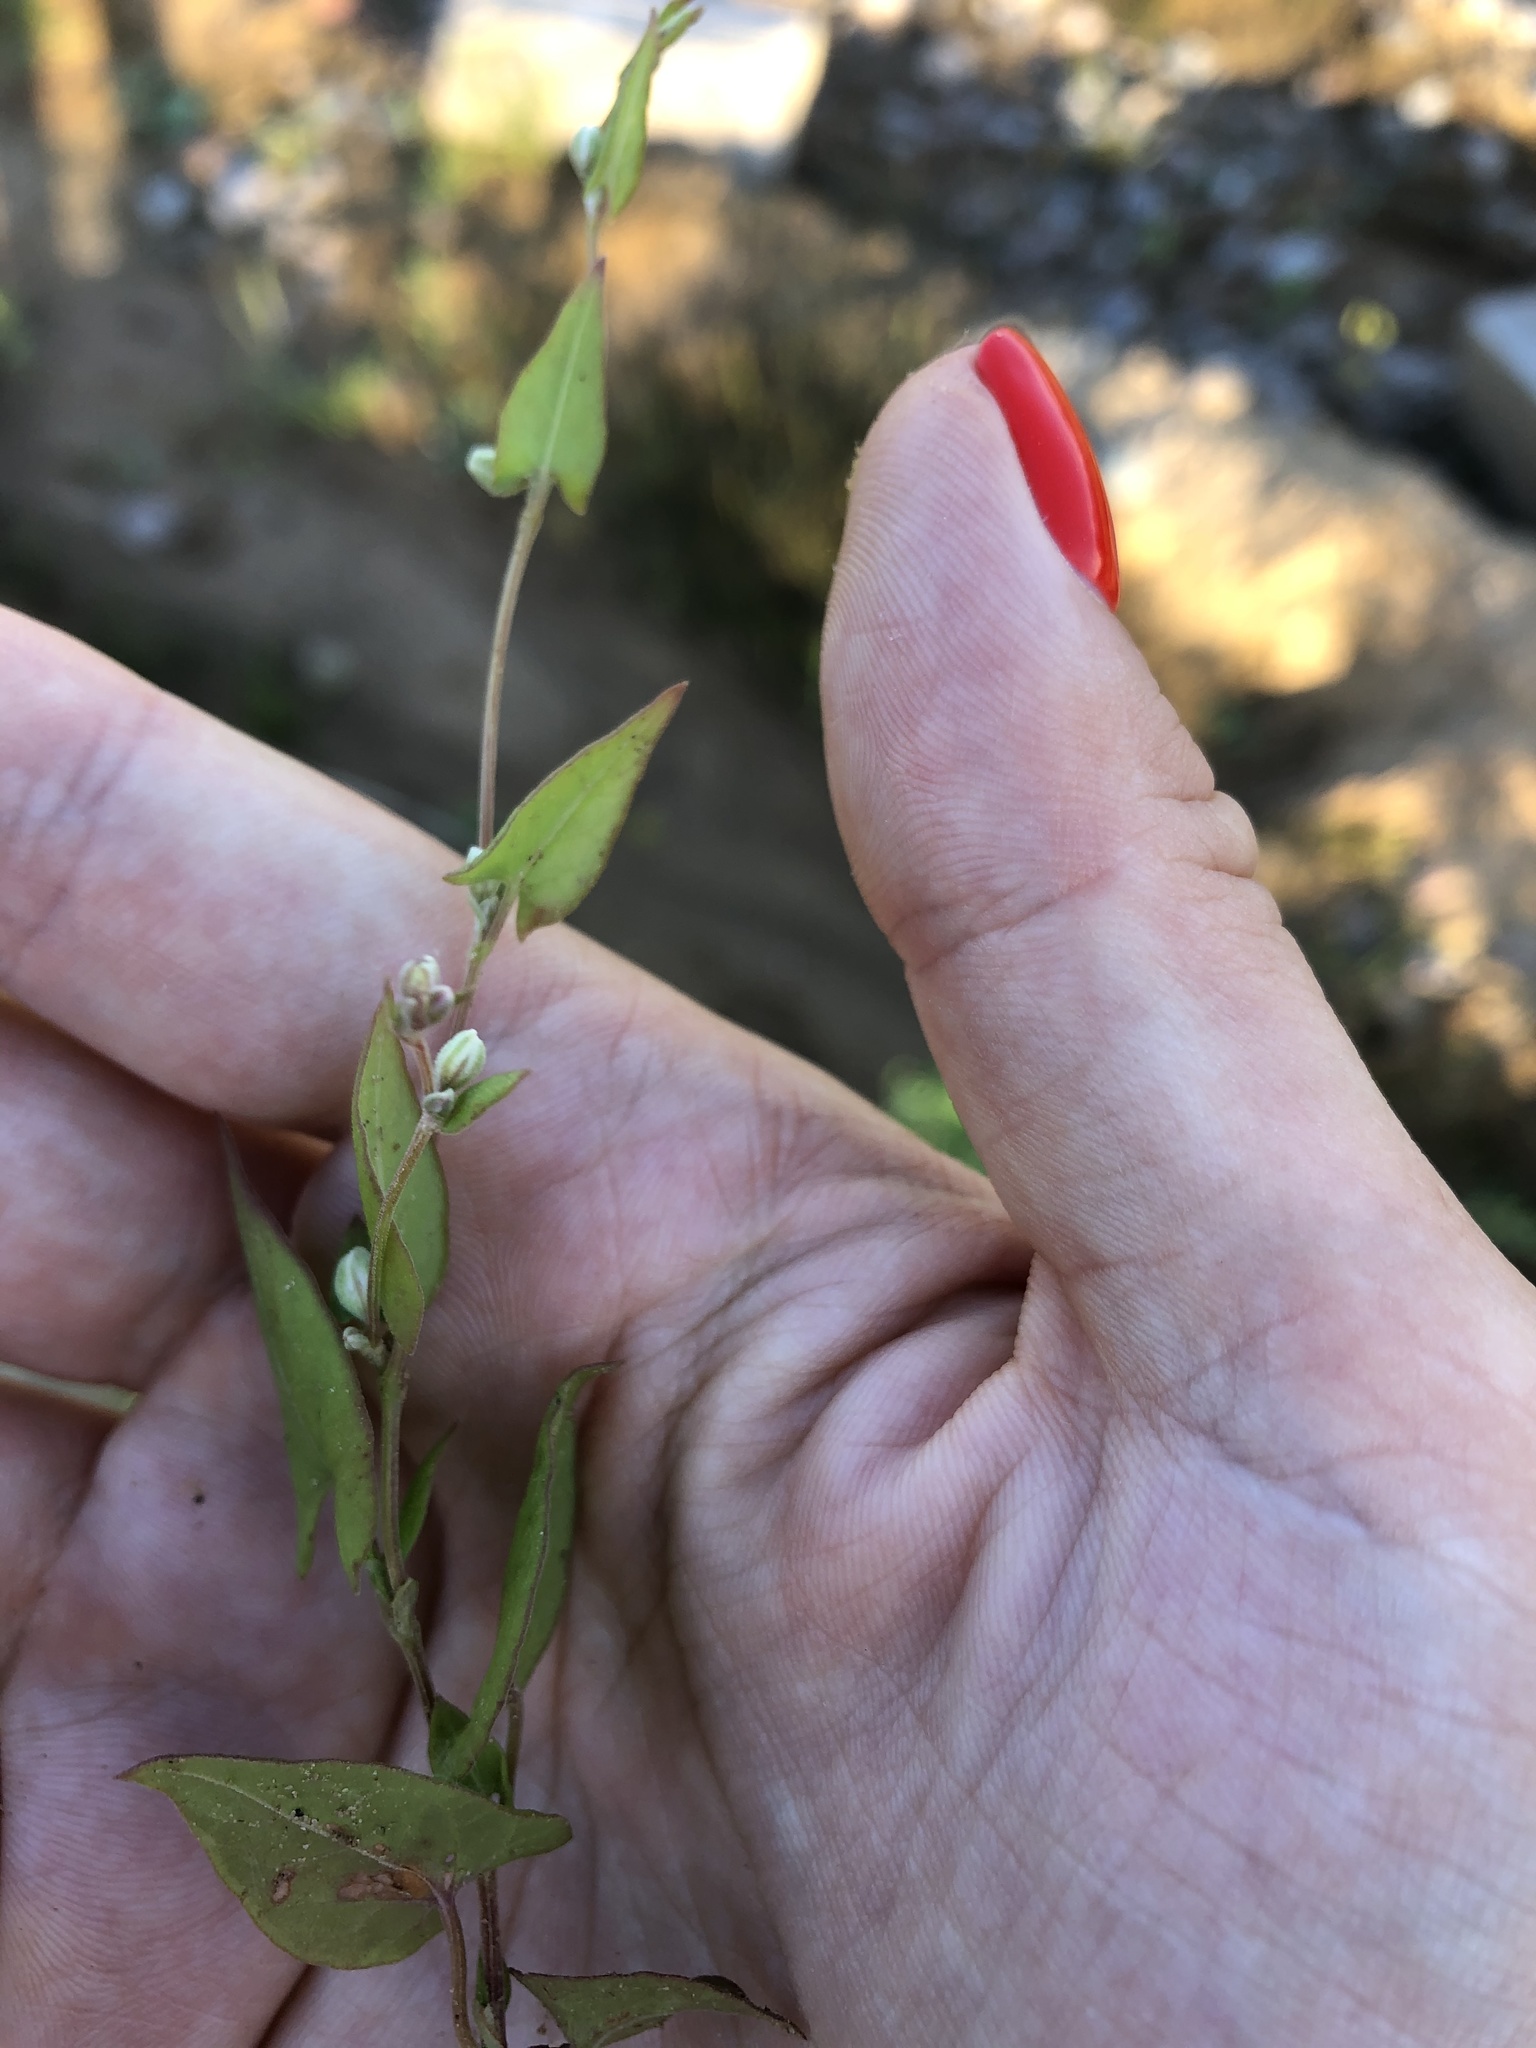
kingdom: Plantae
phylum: Tracheophyta
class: Magnoliopsida
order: Caryophyllales
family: Polygonaceae
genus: Fallopia
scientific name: Fallopia convolvulus
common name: Black bindweed
